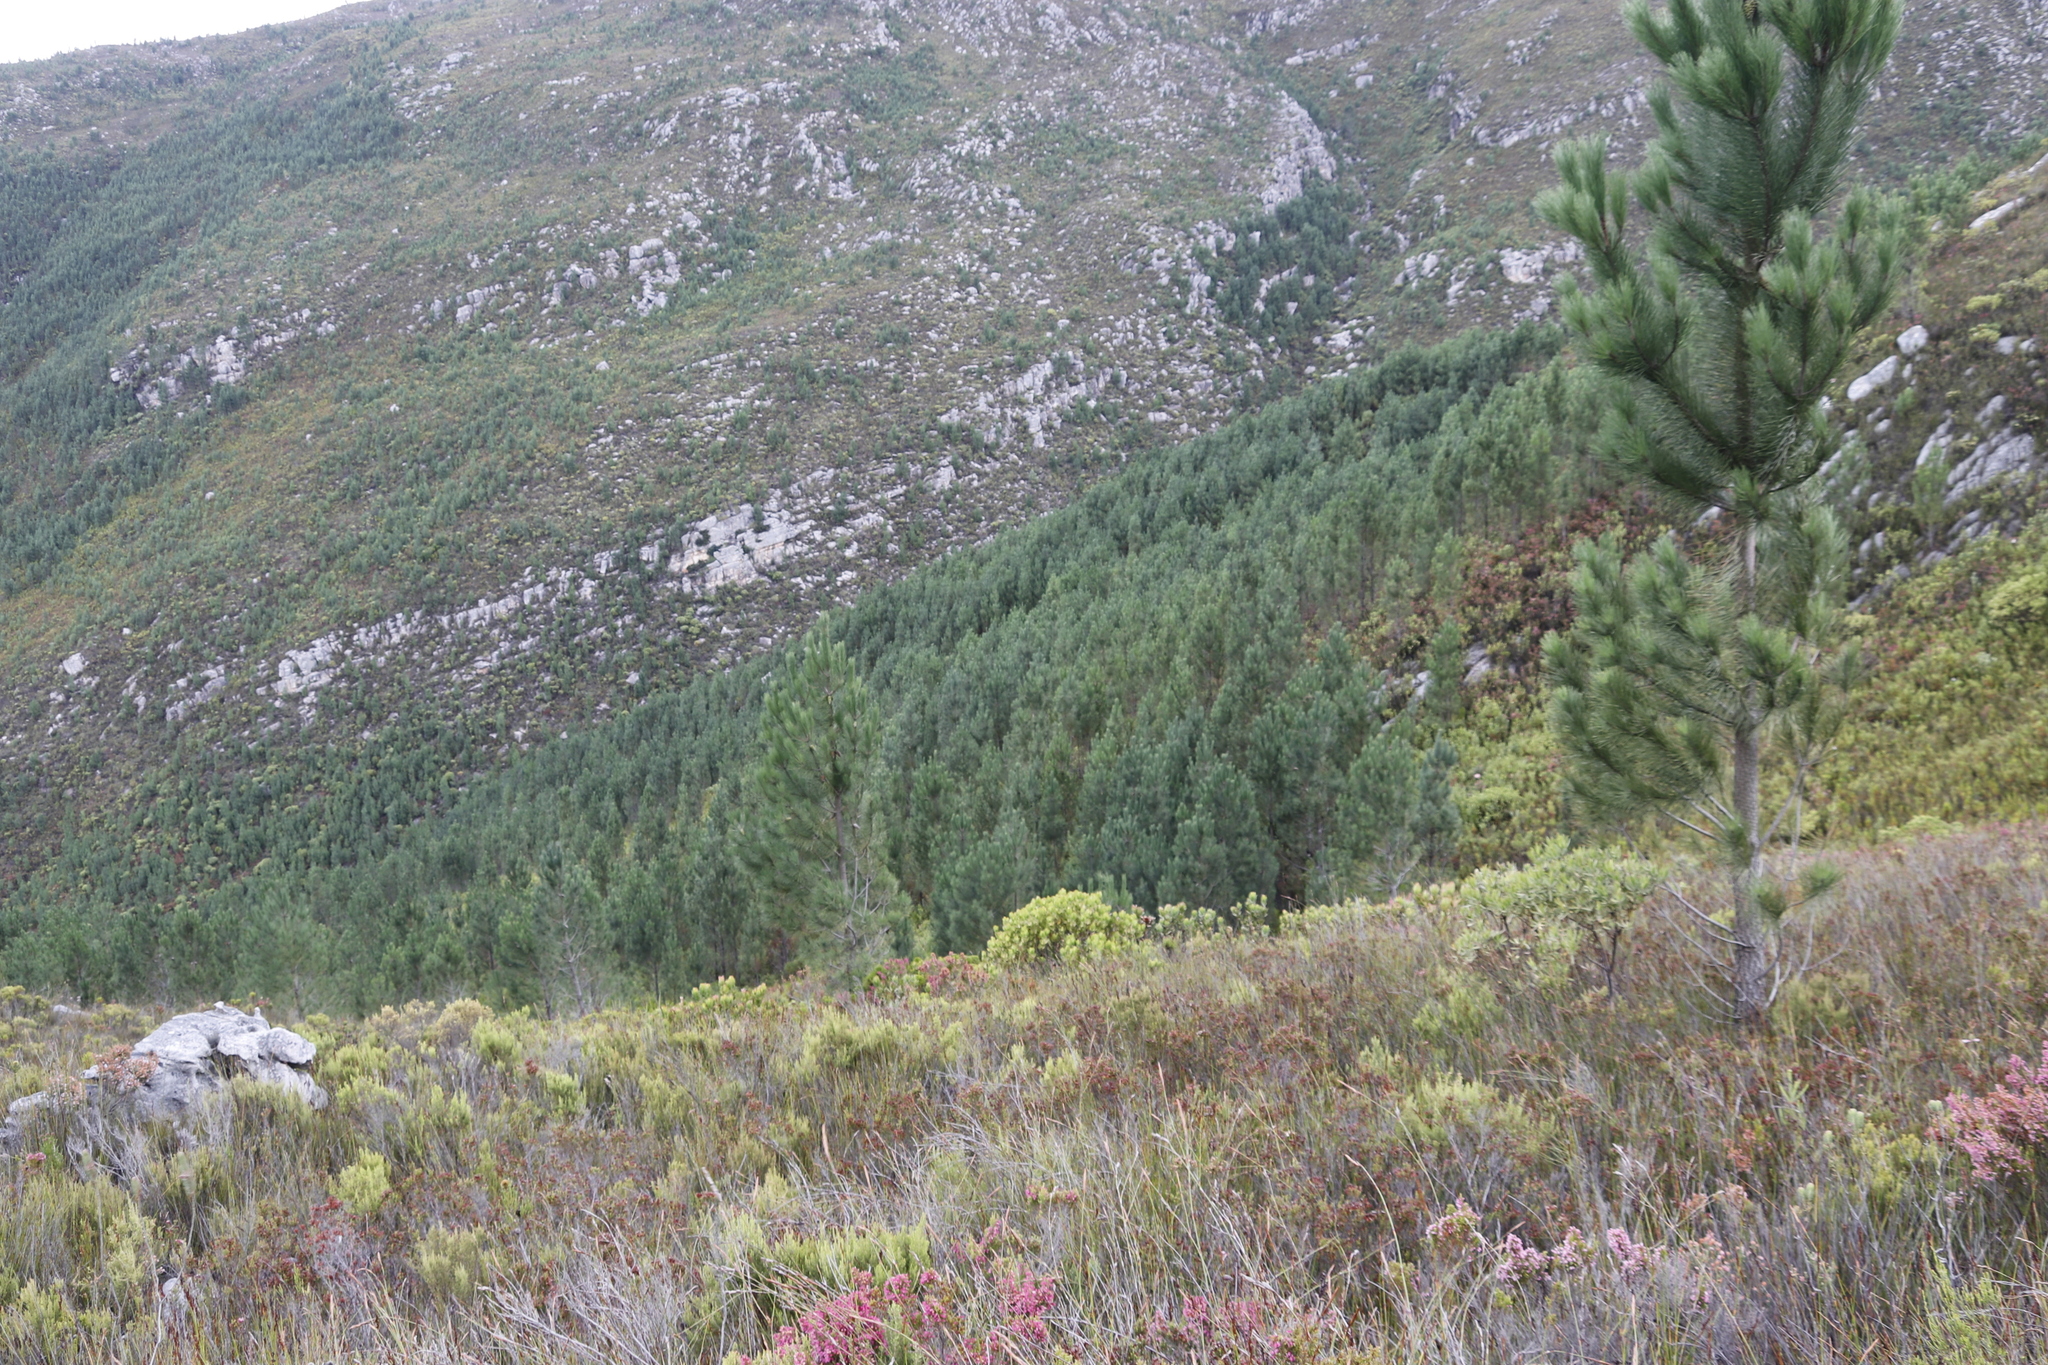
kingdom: Plantae
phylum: Tracheophyta
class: Pinopsida
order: Pinales
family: Pinaceae
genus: Pinus
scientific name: Pinus radiata
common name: Monterey pine
